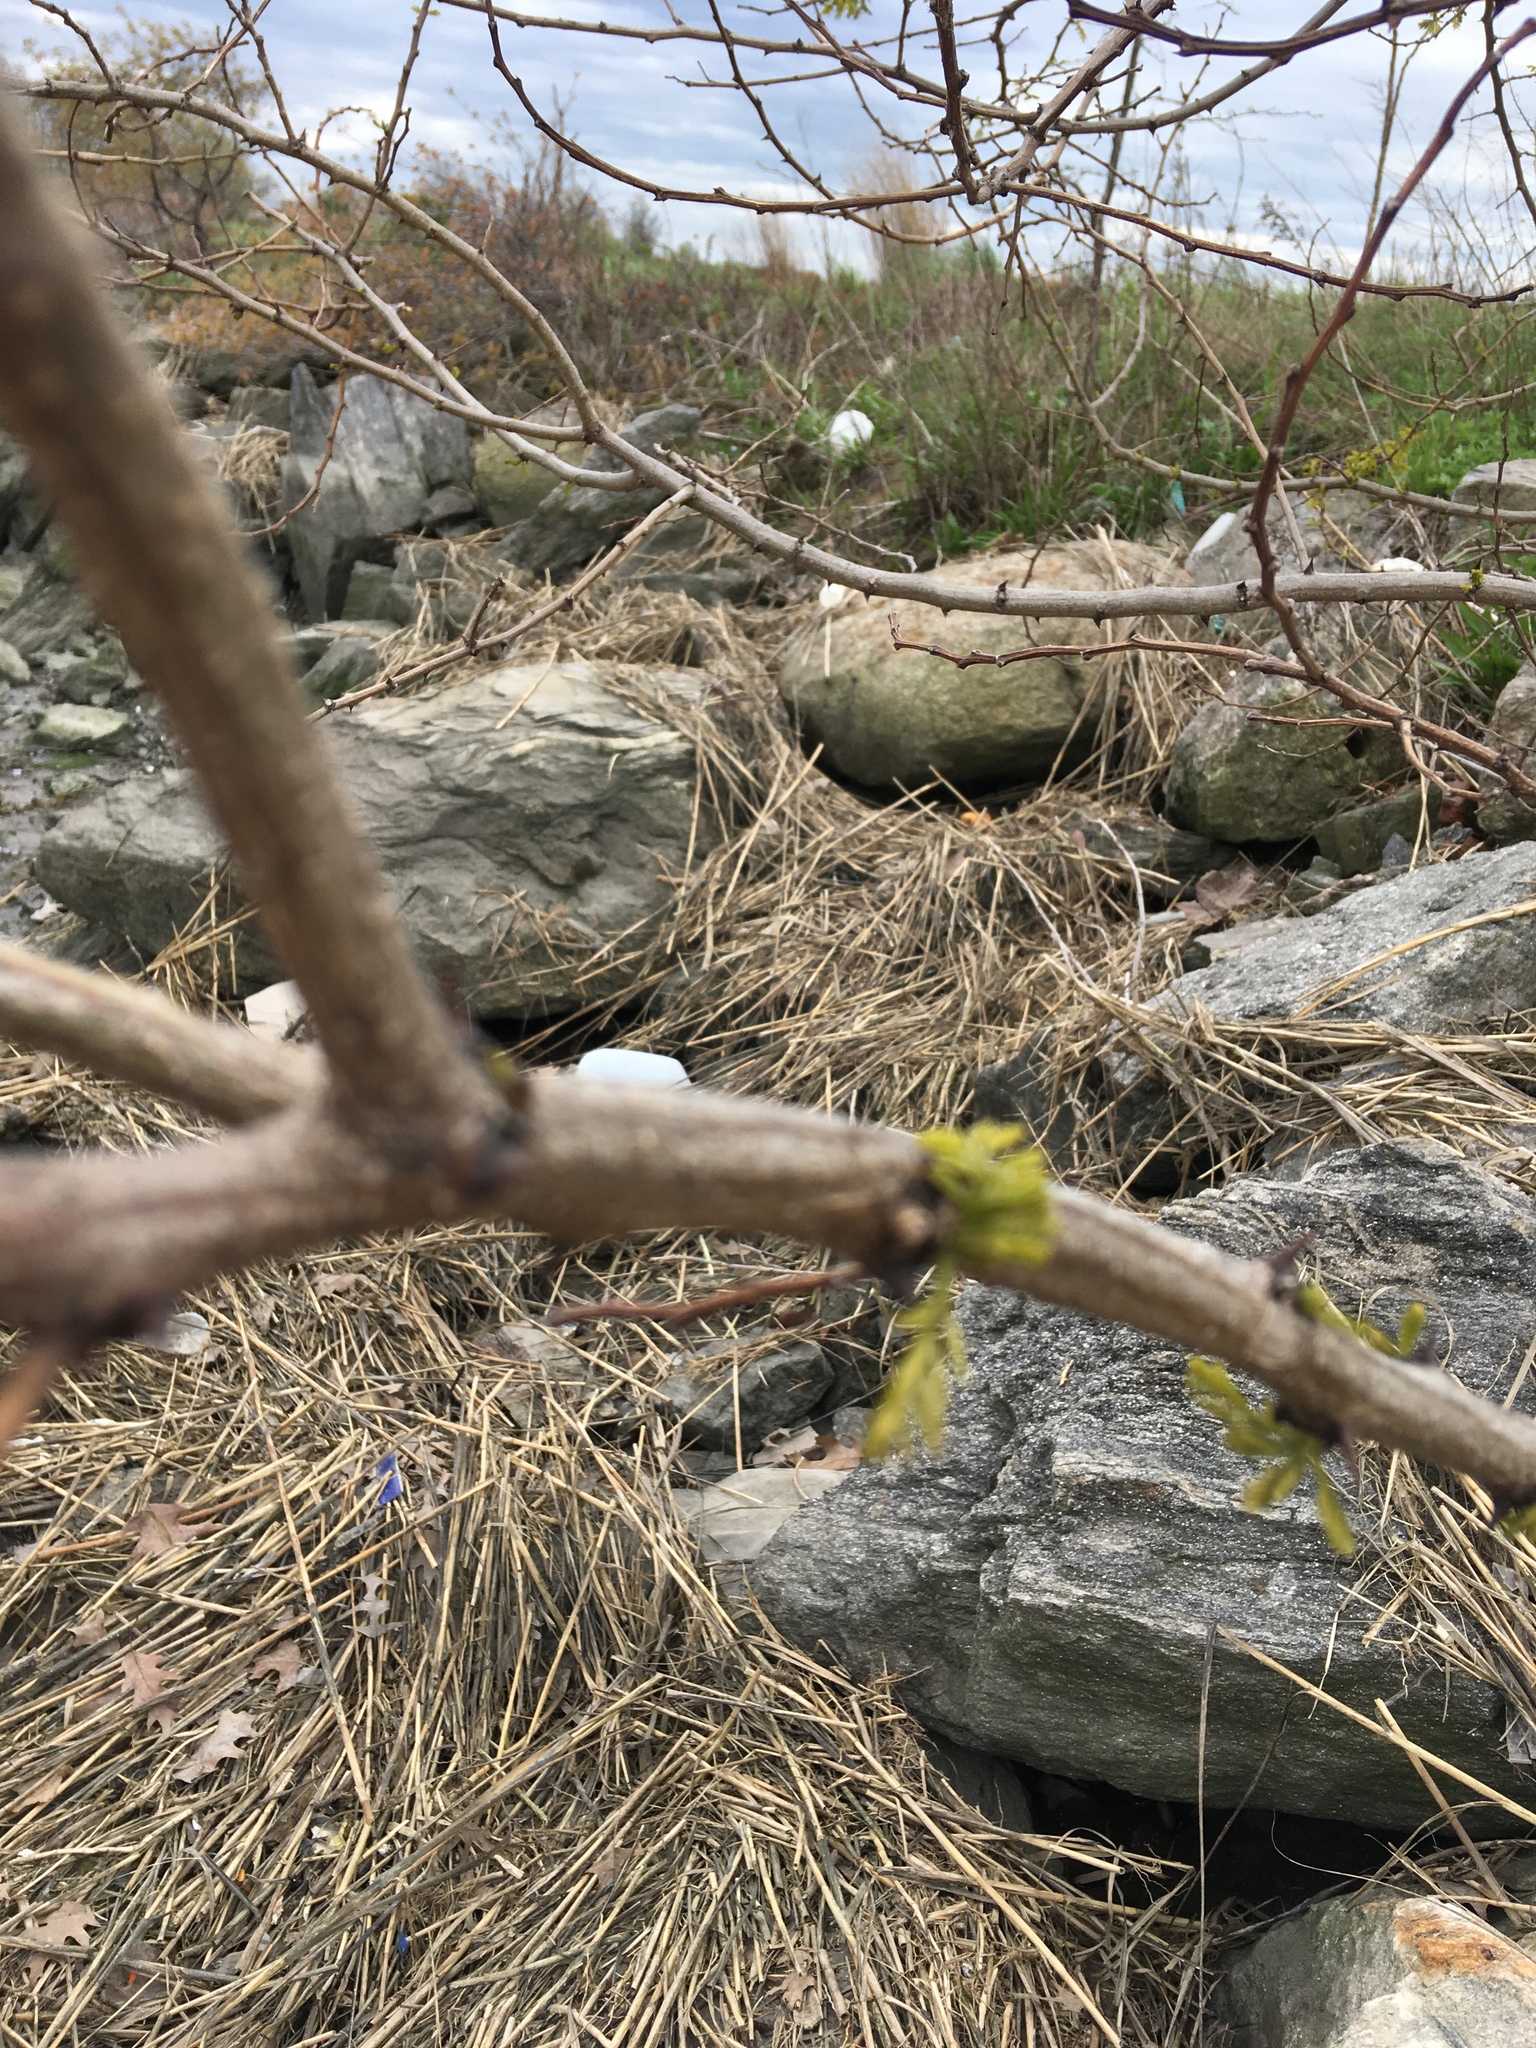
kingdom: Plantae
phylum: Tracheophyta
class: Magnoliopsida
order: Fabales
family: Fabaceae
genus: Robinia
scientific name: Robinia pseudoacacia
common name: Black locust
